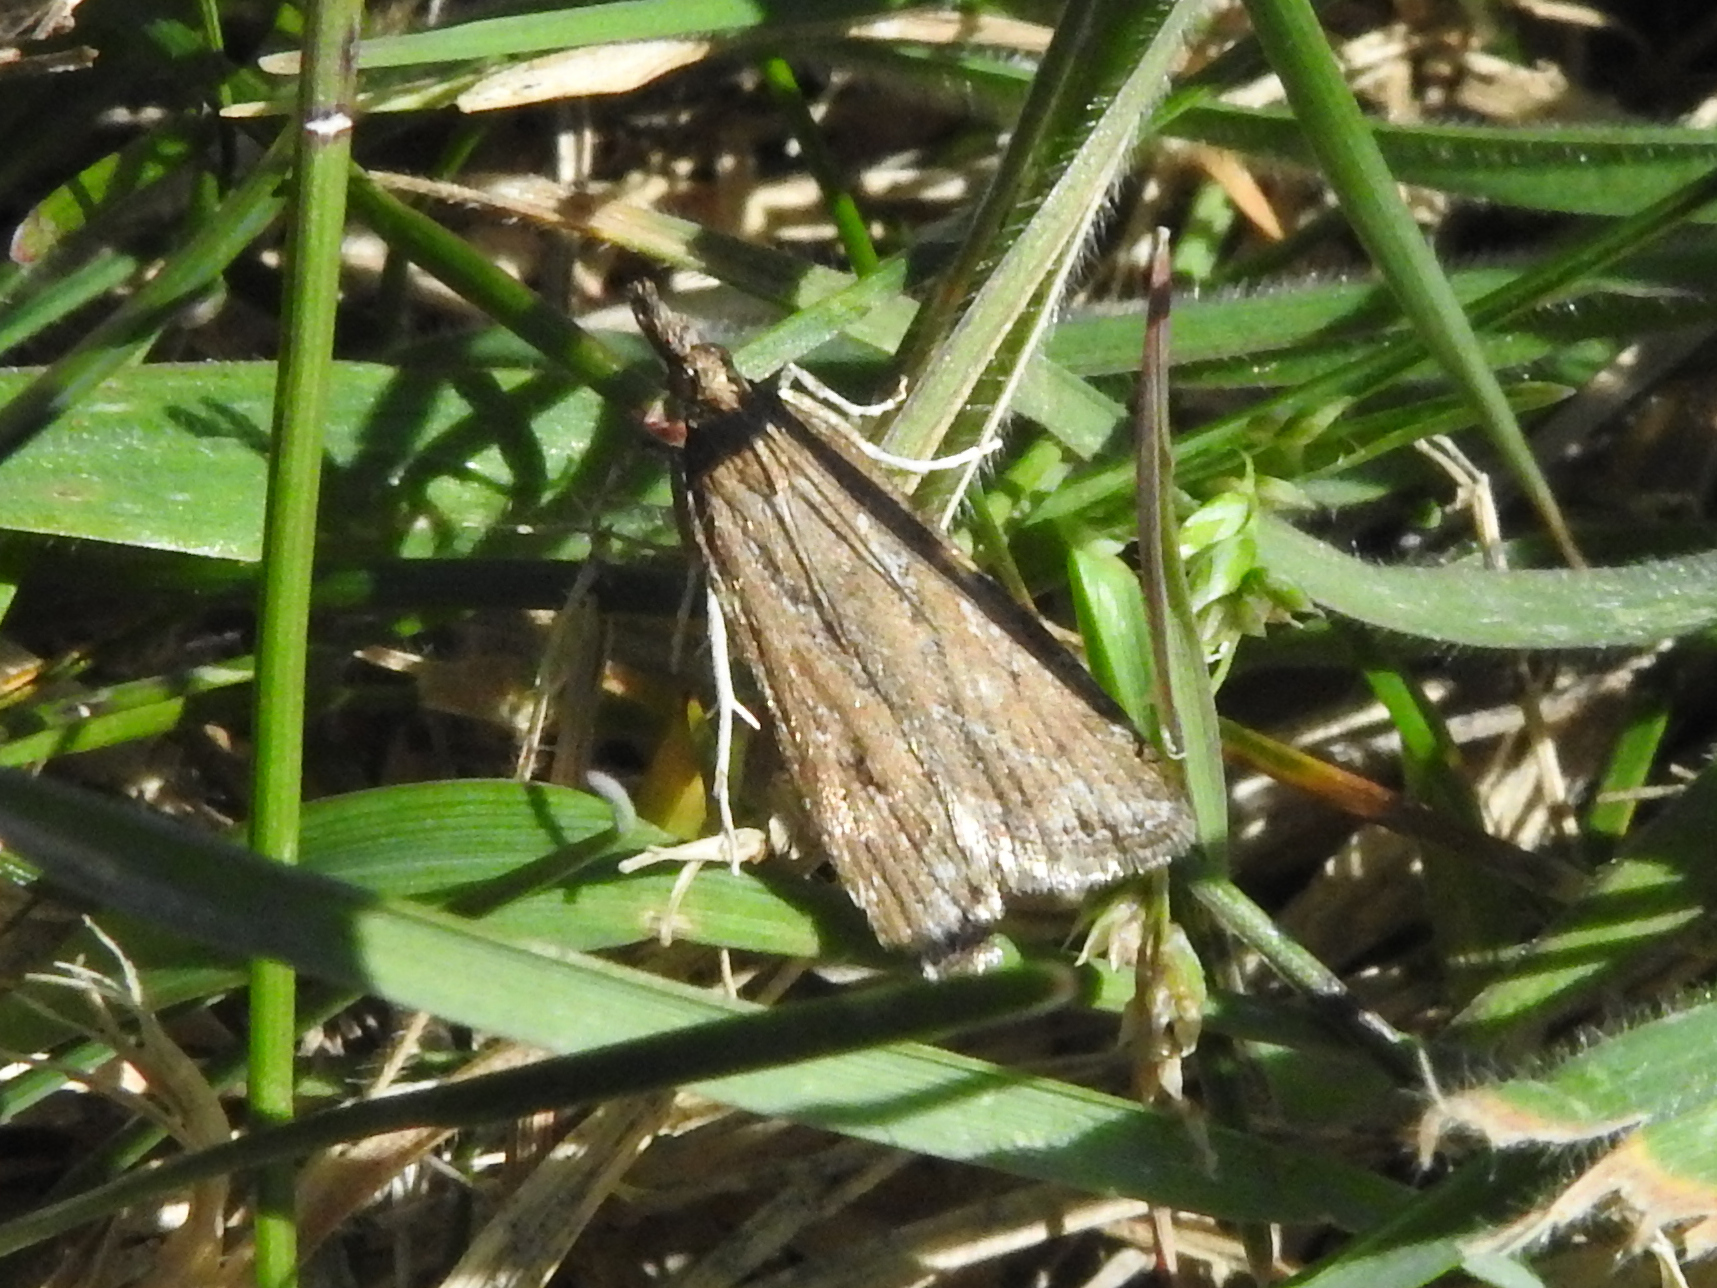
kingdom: Animalia
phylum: Arthropoda
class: Insecta
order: Lepidoptera
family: Crambidae
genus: Eudonia
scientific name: Eudonia cleodoralis
